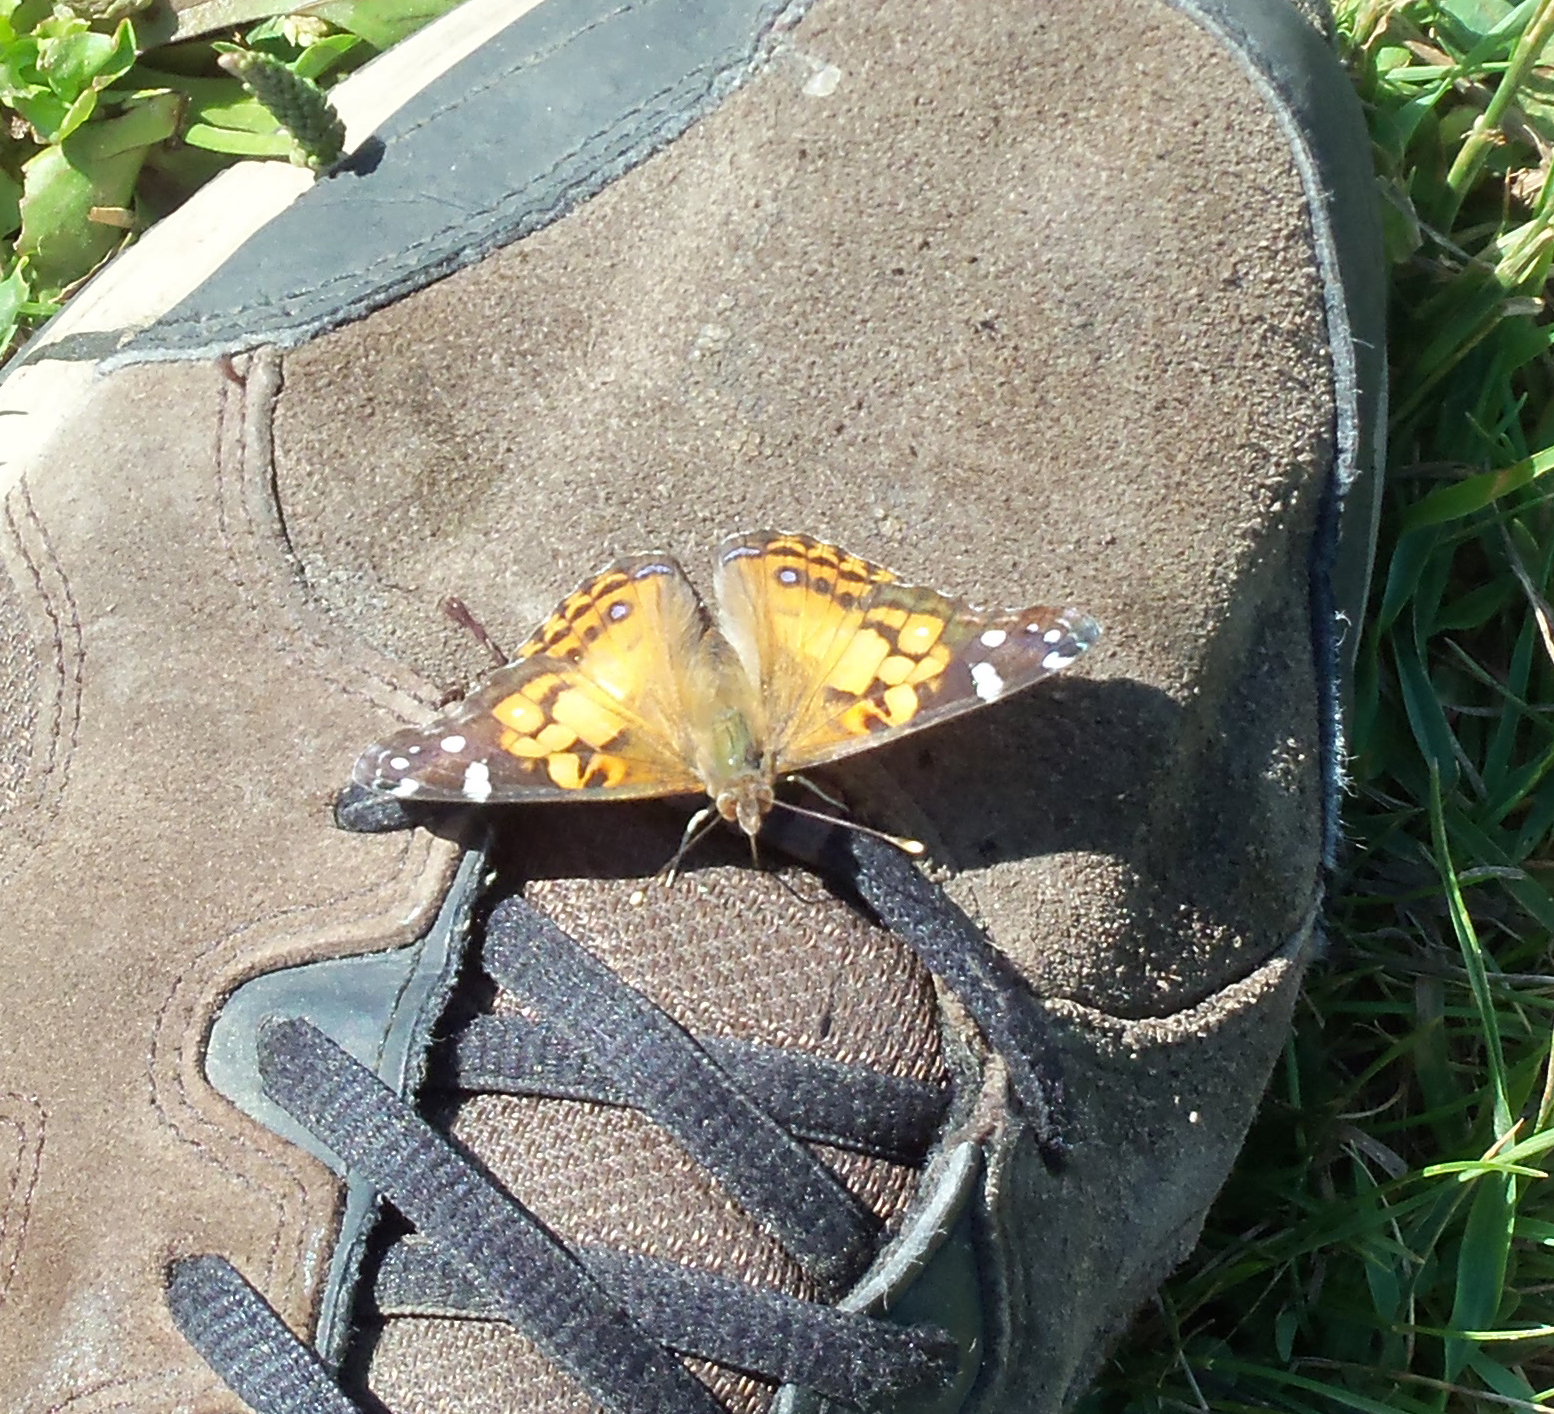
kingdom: Animalia
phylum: Arthropoda
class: Insecta
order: Lepidoptera
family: Nymphalidae
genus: Vanessa
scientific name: Vanessa virginiensis
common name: American lady
